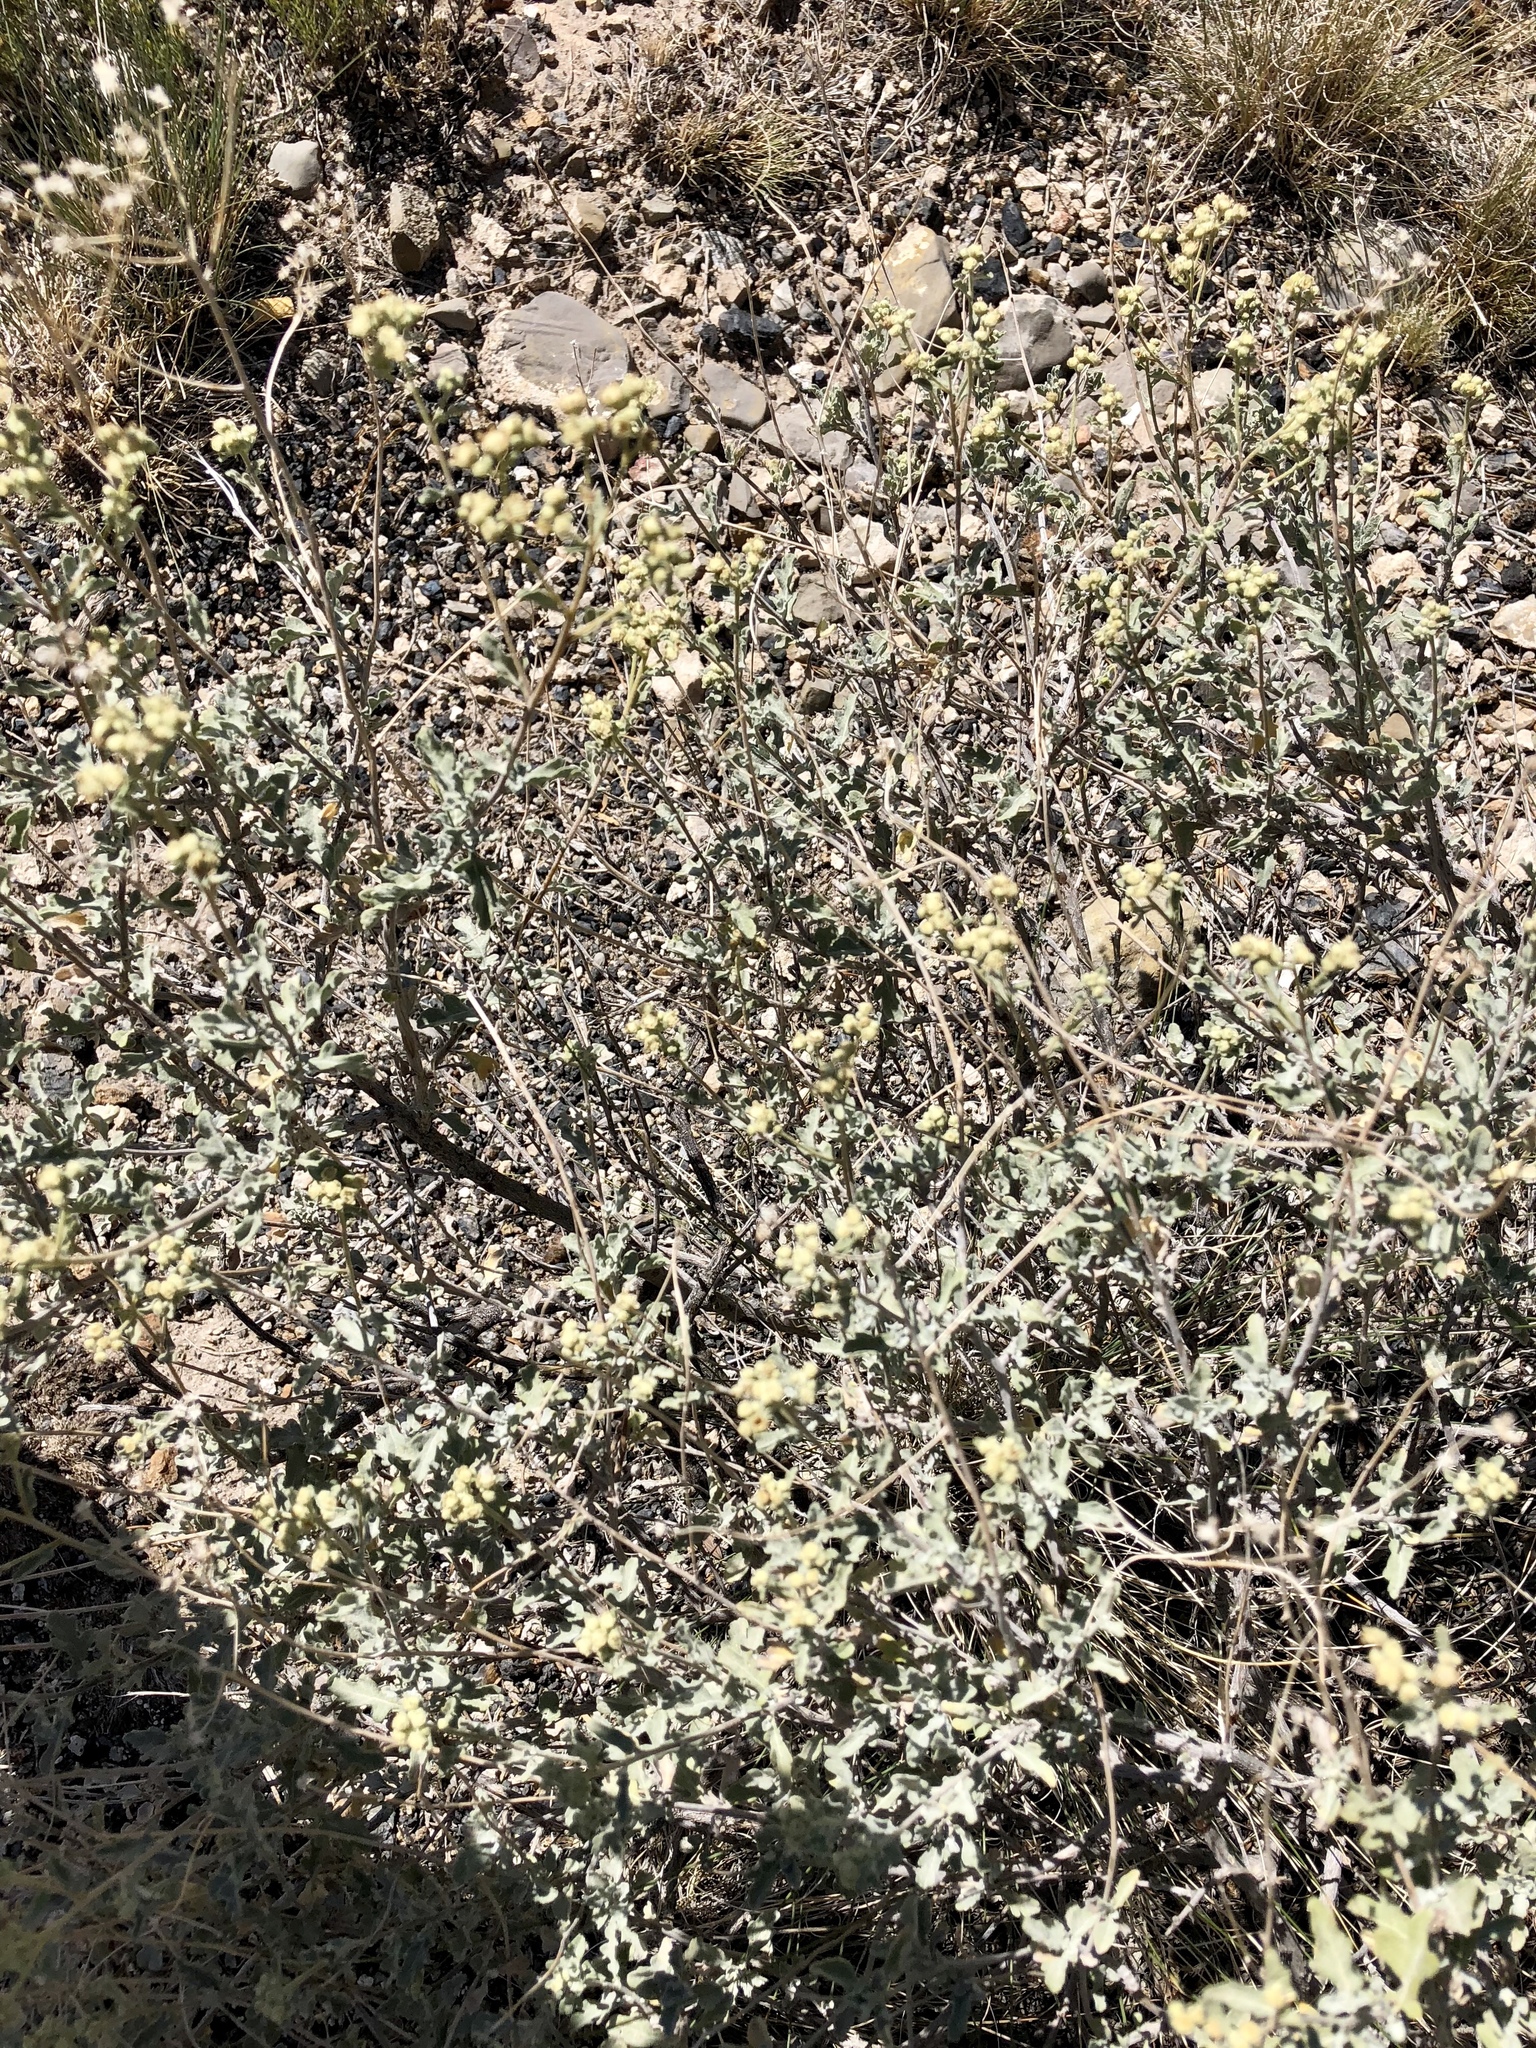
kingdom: Plantae
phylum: Tracheophyta
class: Magnoliopsida
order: Asterales
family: Asteraceae
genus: Parthenium
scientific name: Parthenium incanum
